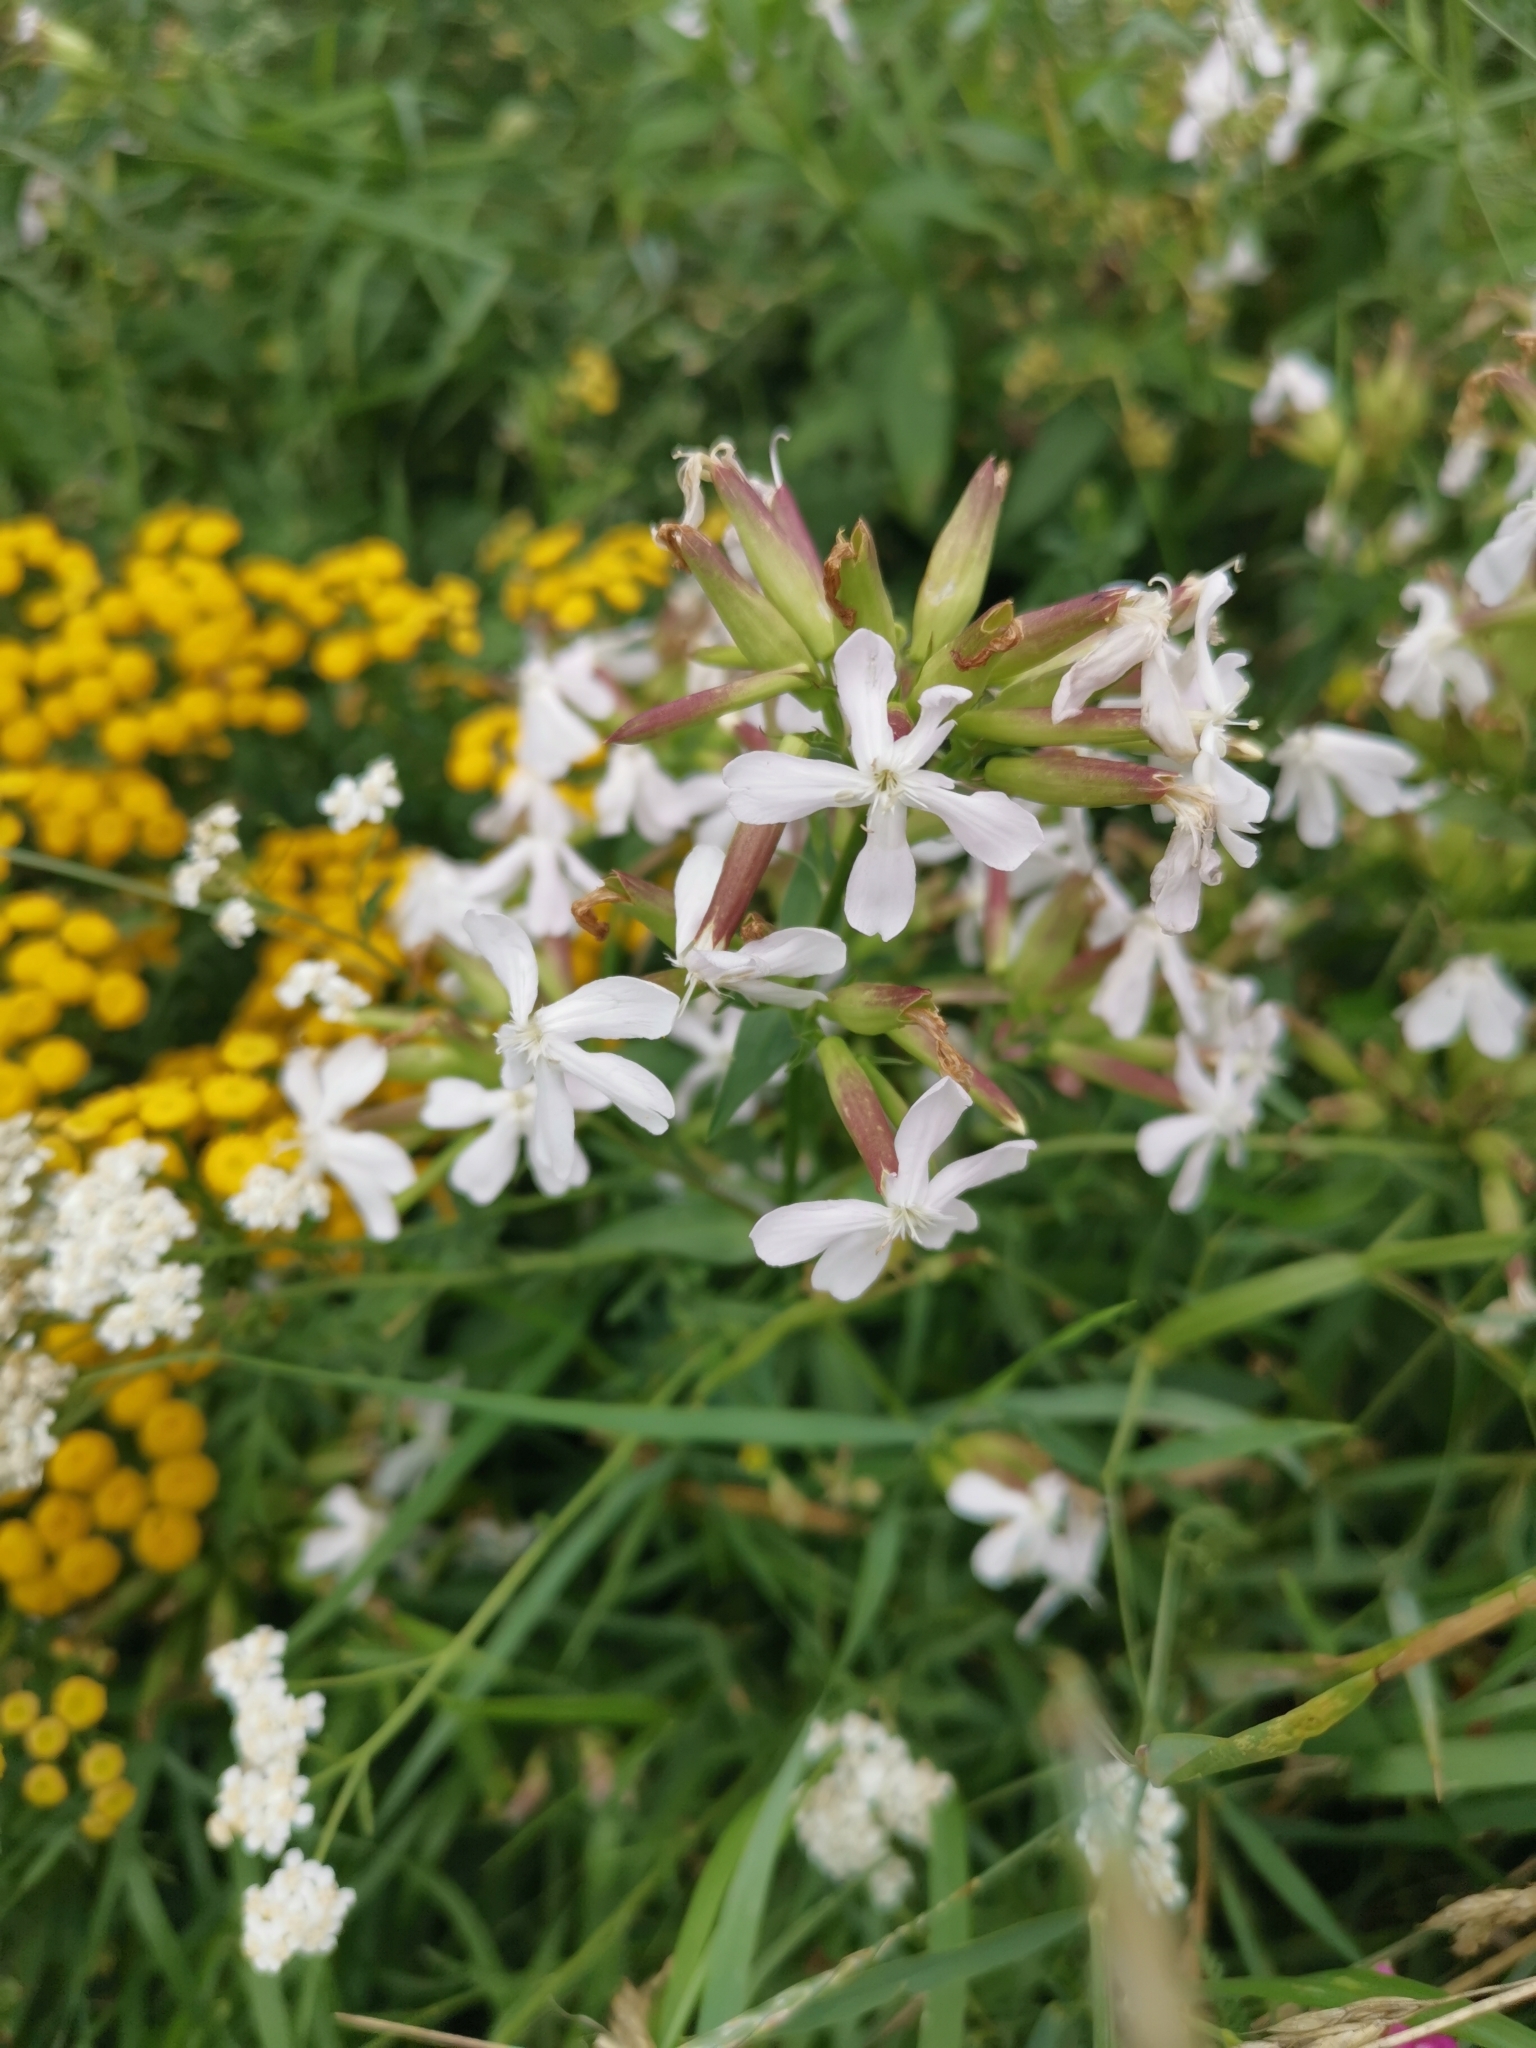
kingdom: Plantae
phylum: Tracheophyta
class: Magnoliopsida
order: Caryophyllales
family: Caryophyllaceae
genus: Saponaria
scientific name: Saponaria officinalis
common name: Soapwort
